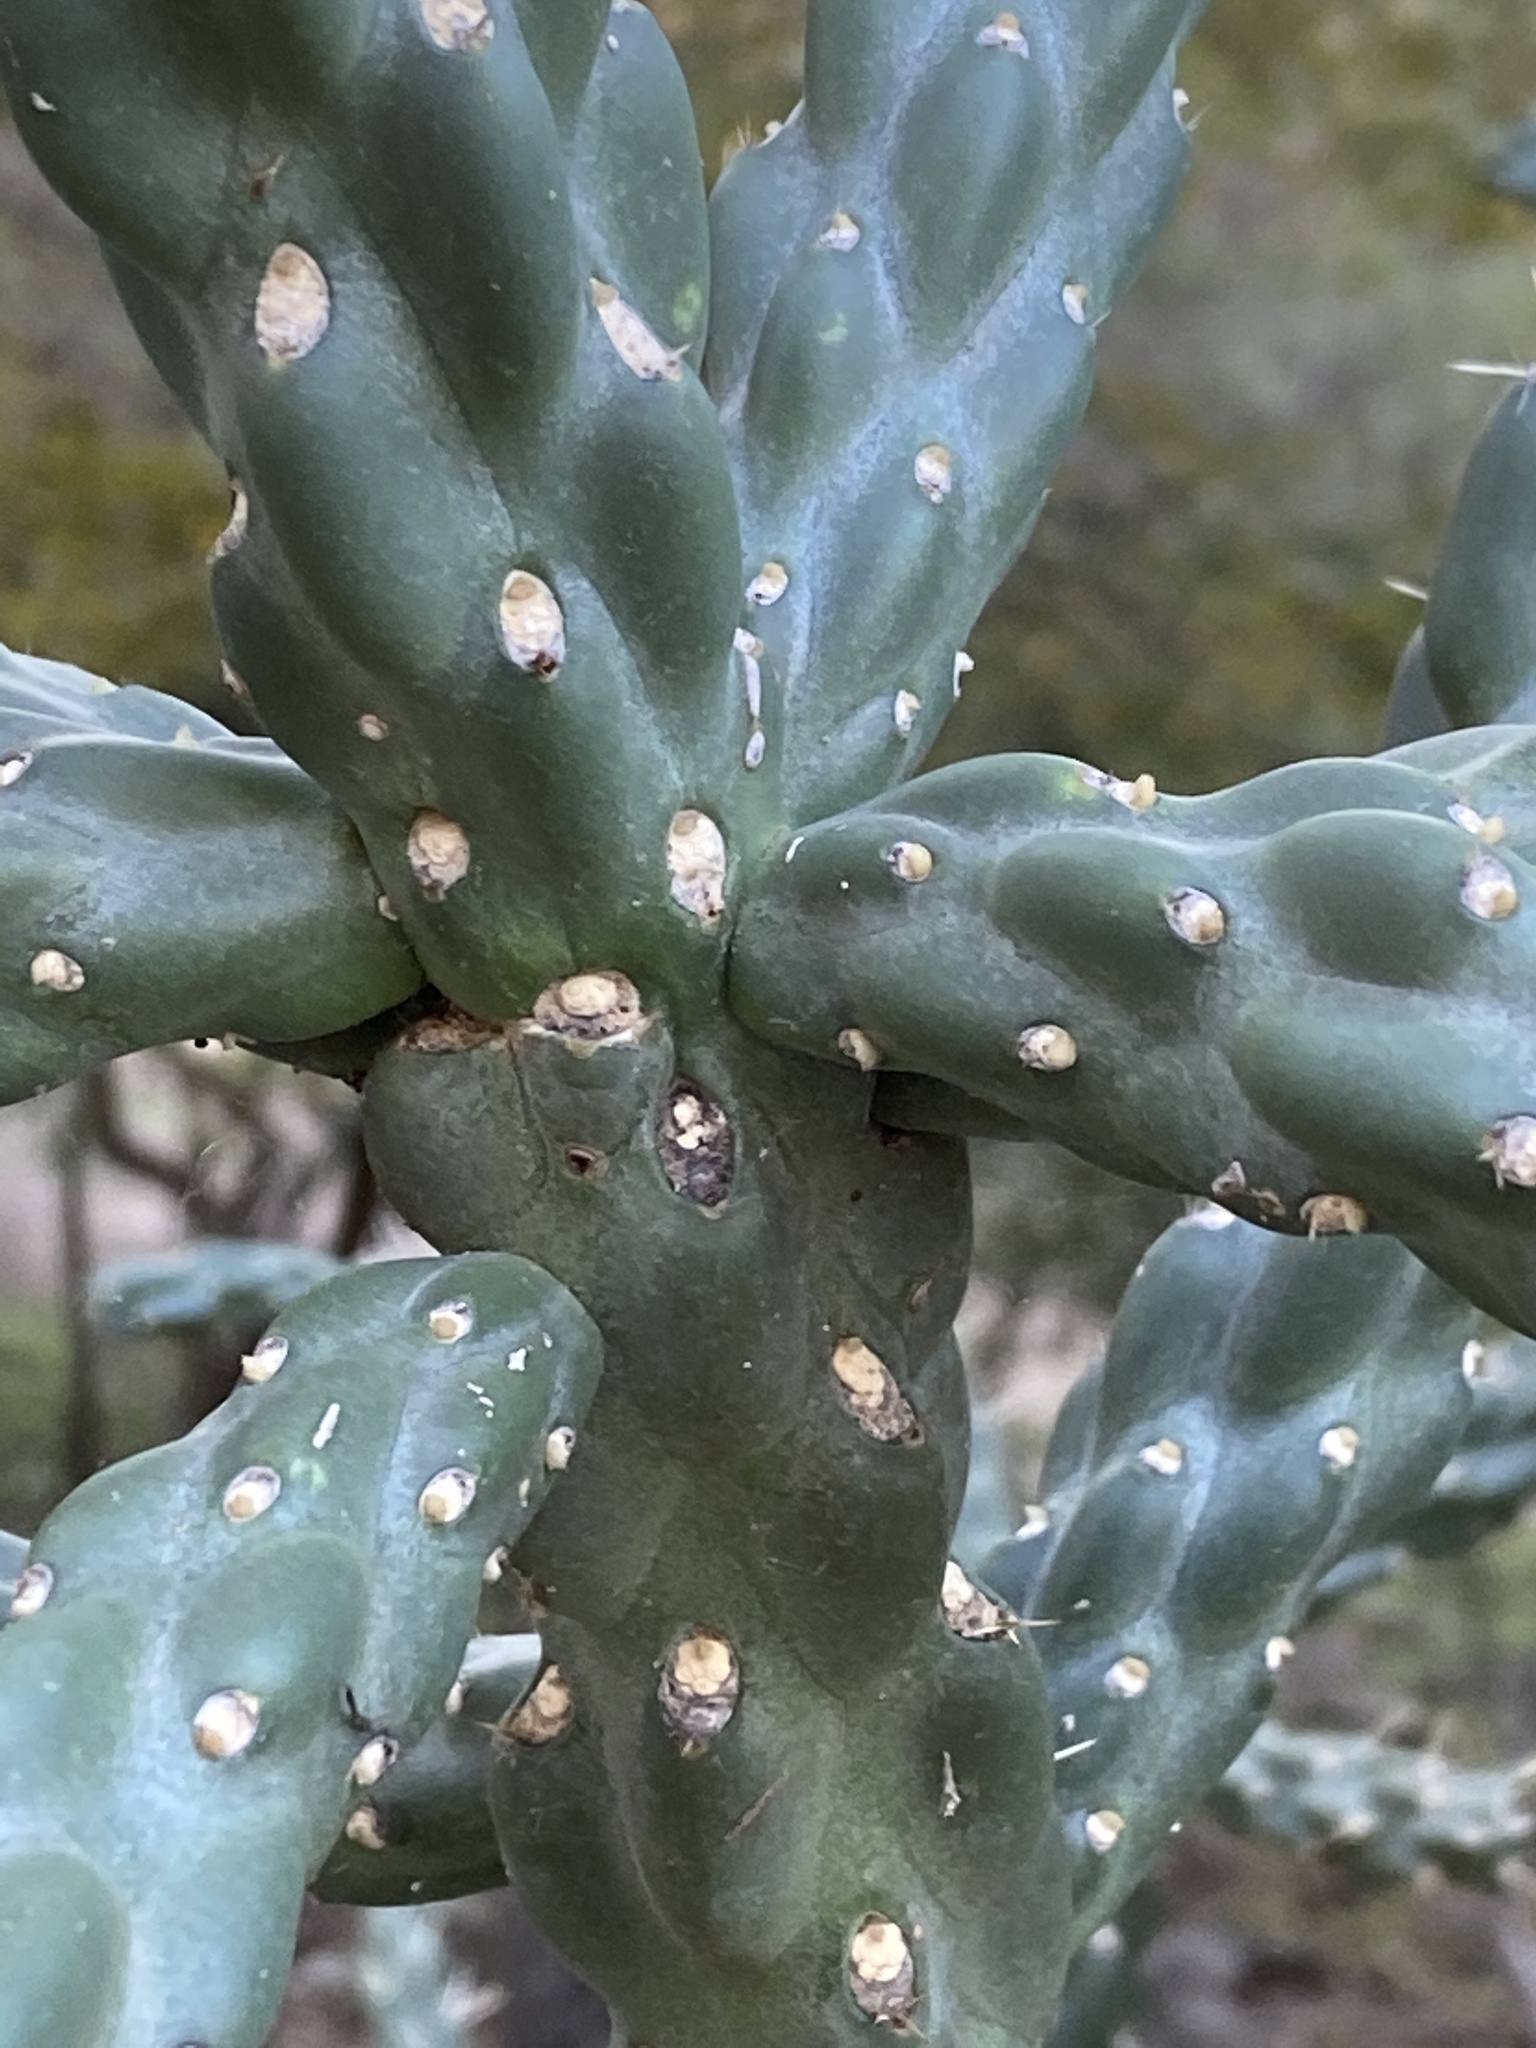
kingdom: Plantae
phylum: Tracheophyta
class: Magnoliopsida
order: Caryophyllales
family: Cactaceae
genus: Cylindropuntia
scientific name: Cylindropuntia imbricata
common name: Candelabrum cactus
